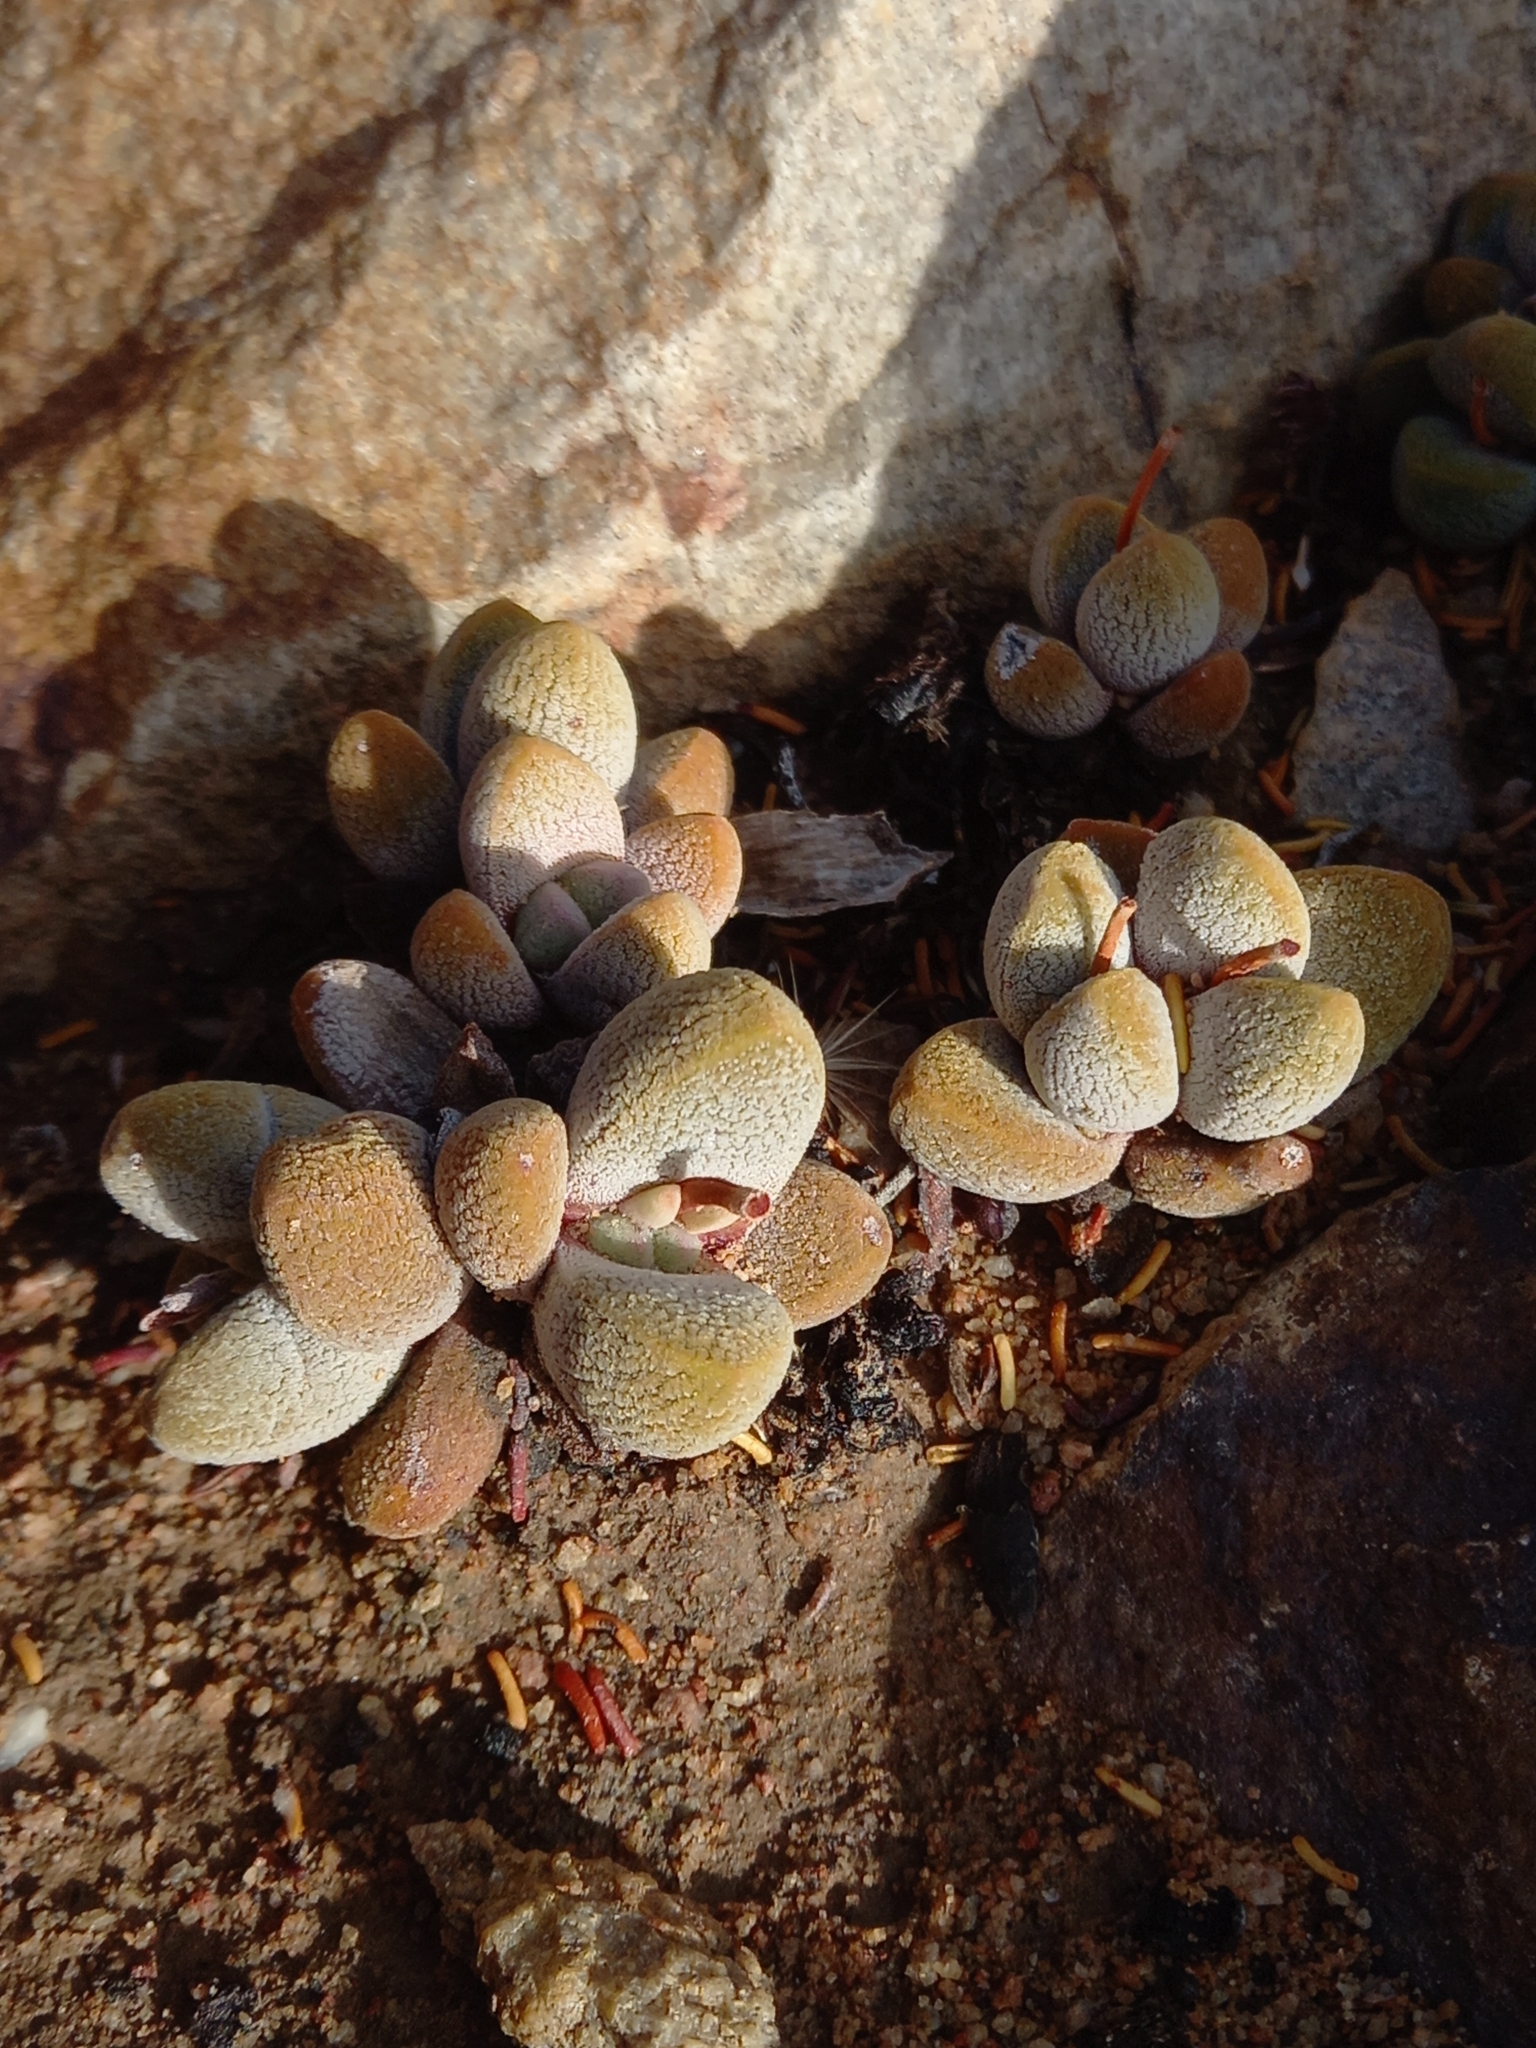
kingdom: Plantae
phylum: Tracheophyta
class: Magnoliopsida
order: Saxifragales
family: Crassulaceae
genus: Crassula
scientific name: Crassula tecta
